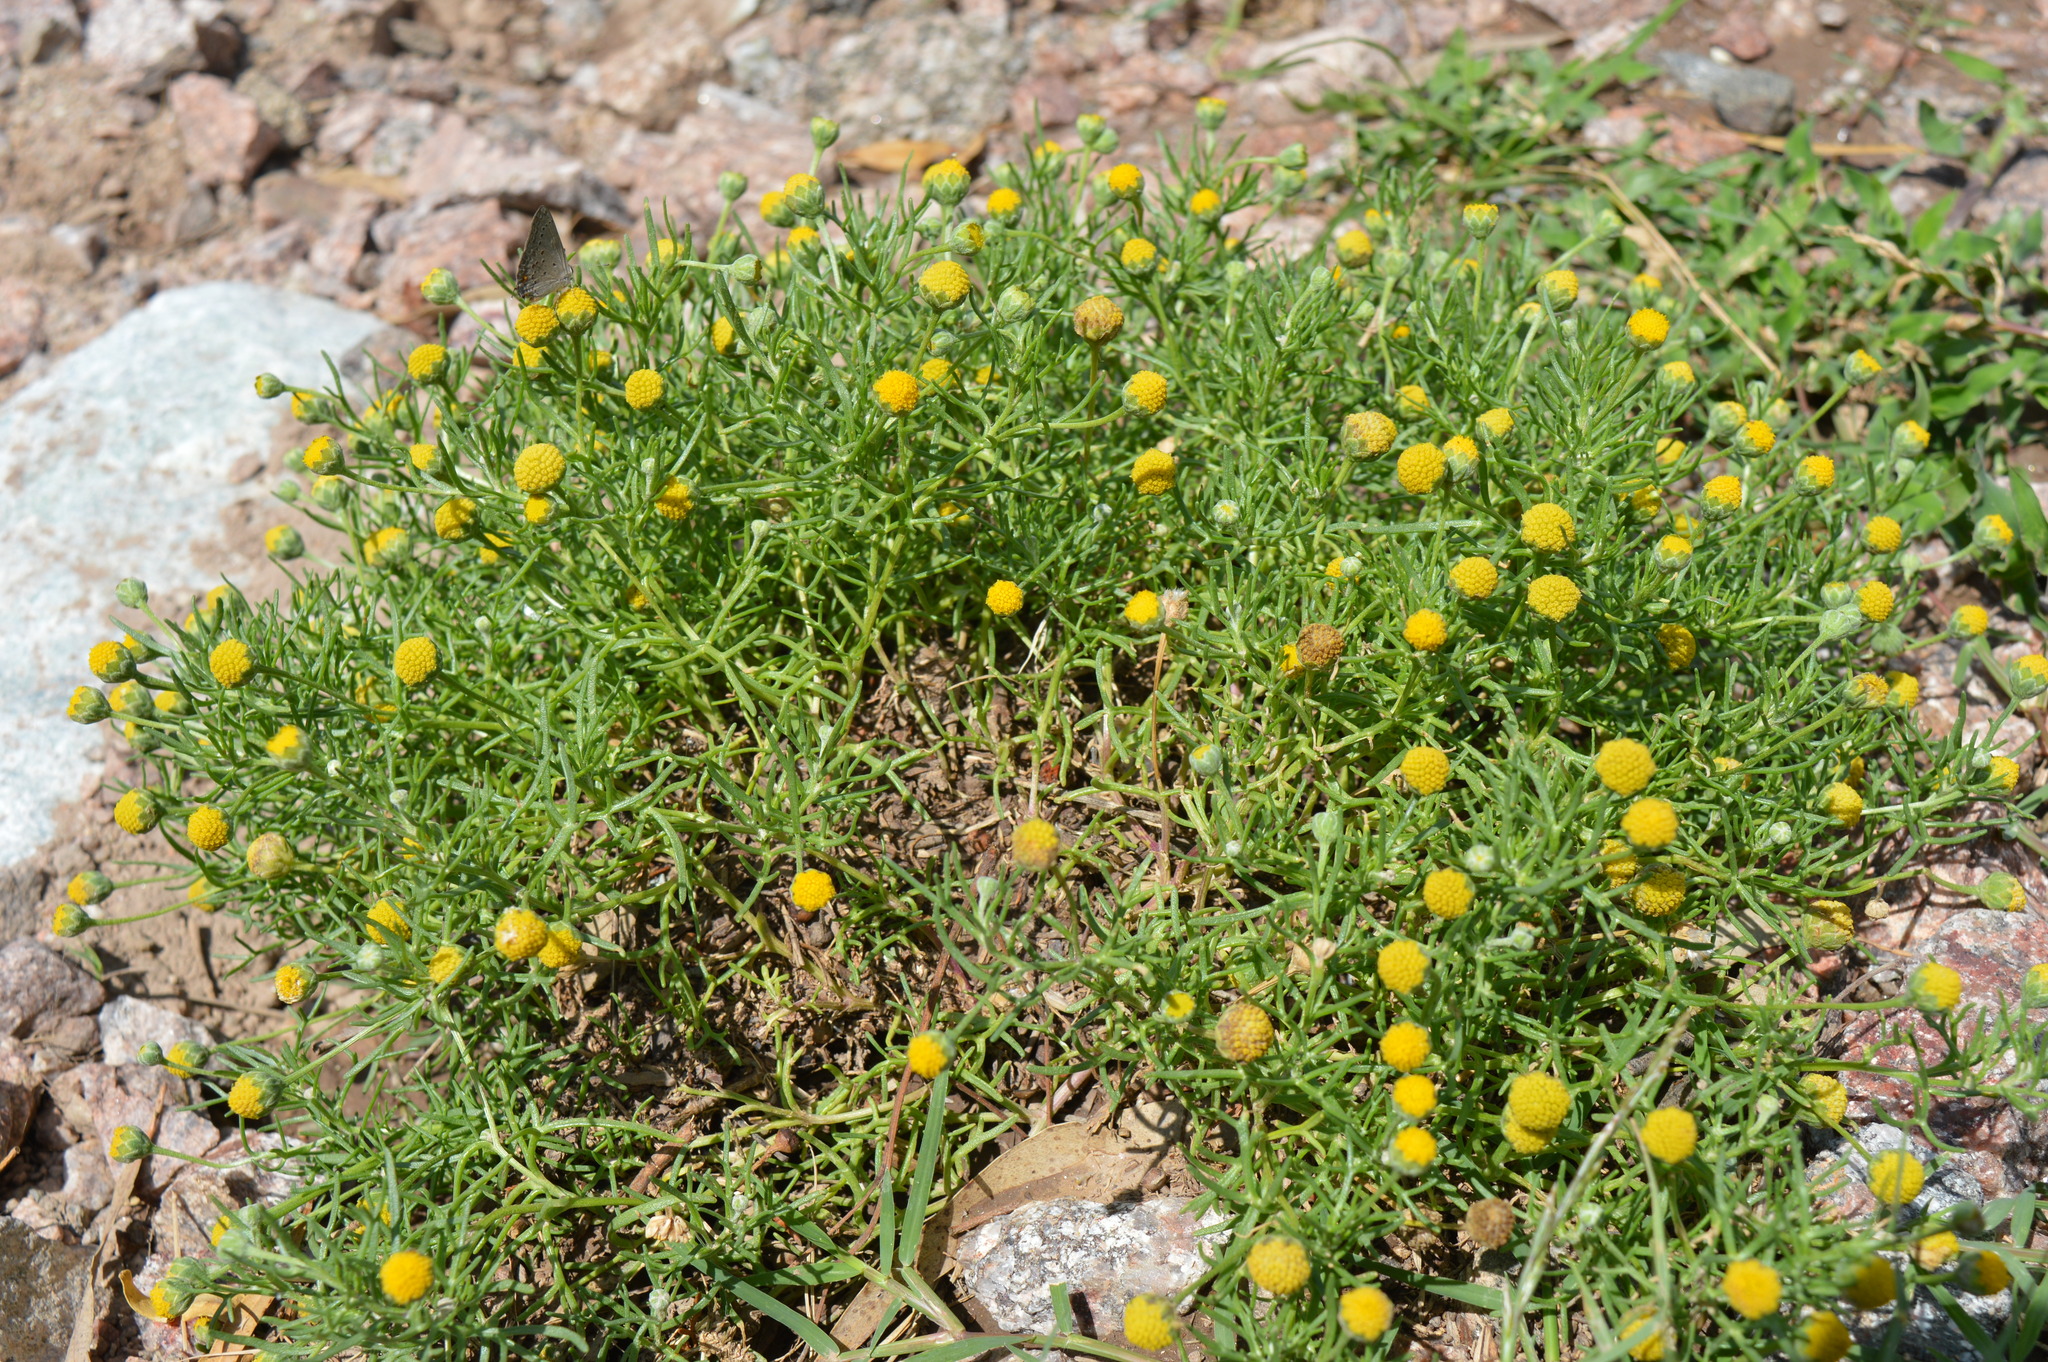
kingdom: Plantae
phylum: Tracheophyta
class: Magnoliopsida
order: Asterales
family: Asteraceae
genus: Hymenoxys
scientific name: Hymenoxys anthemoides
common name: South american rubberweed
